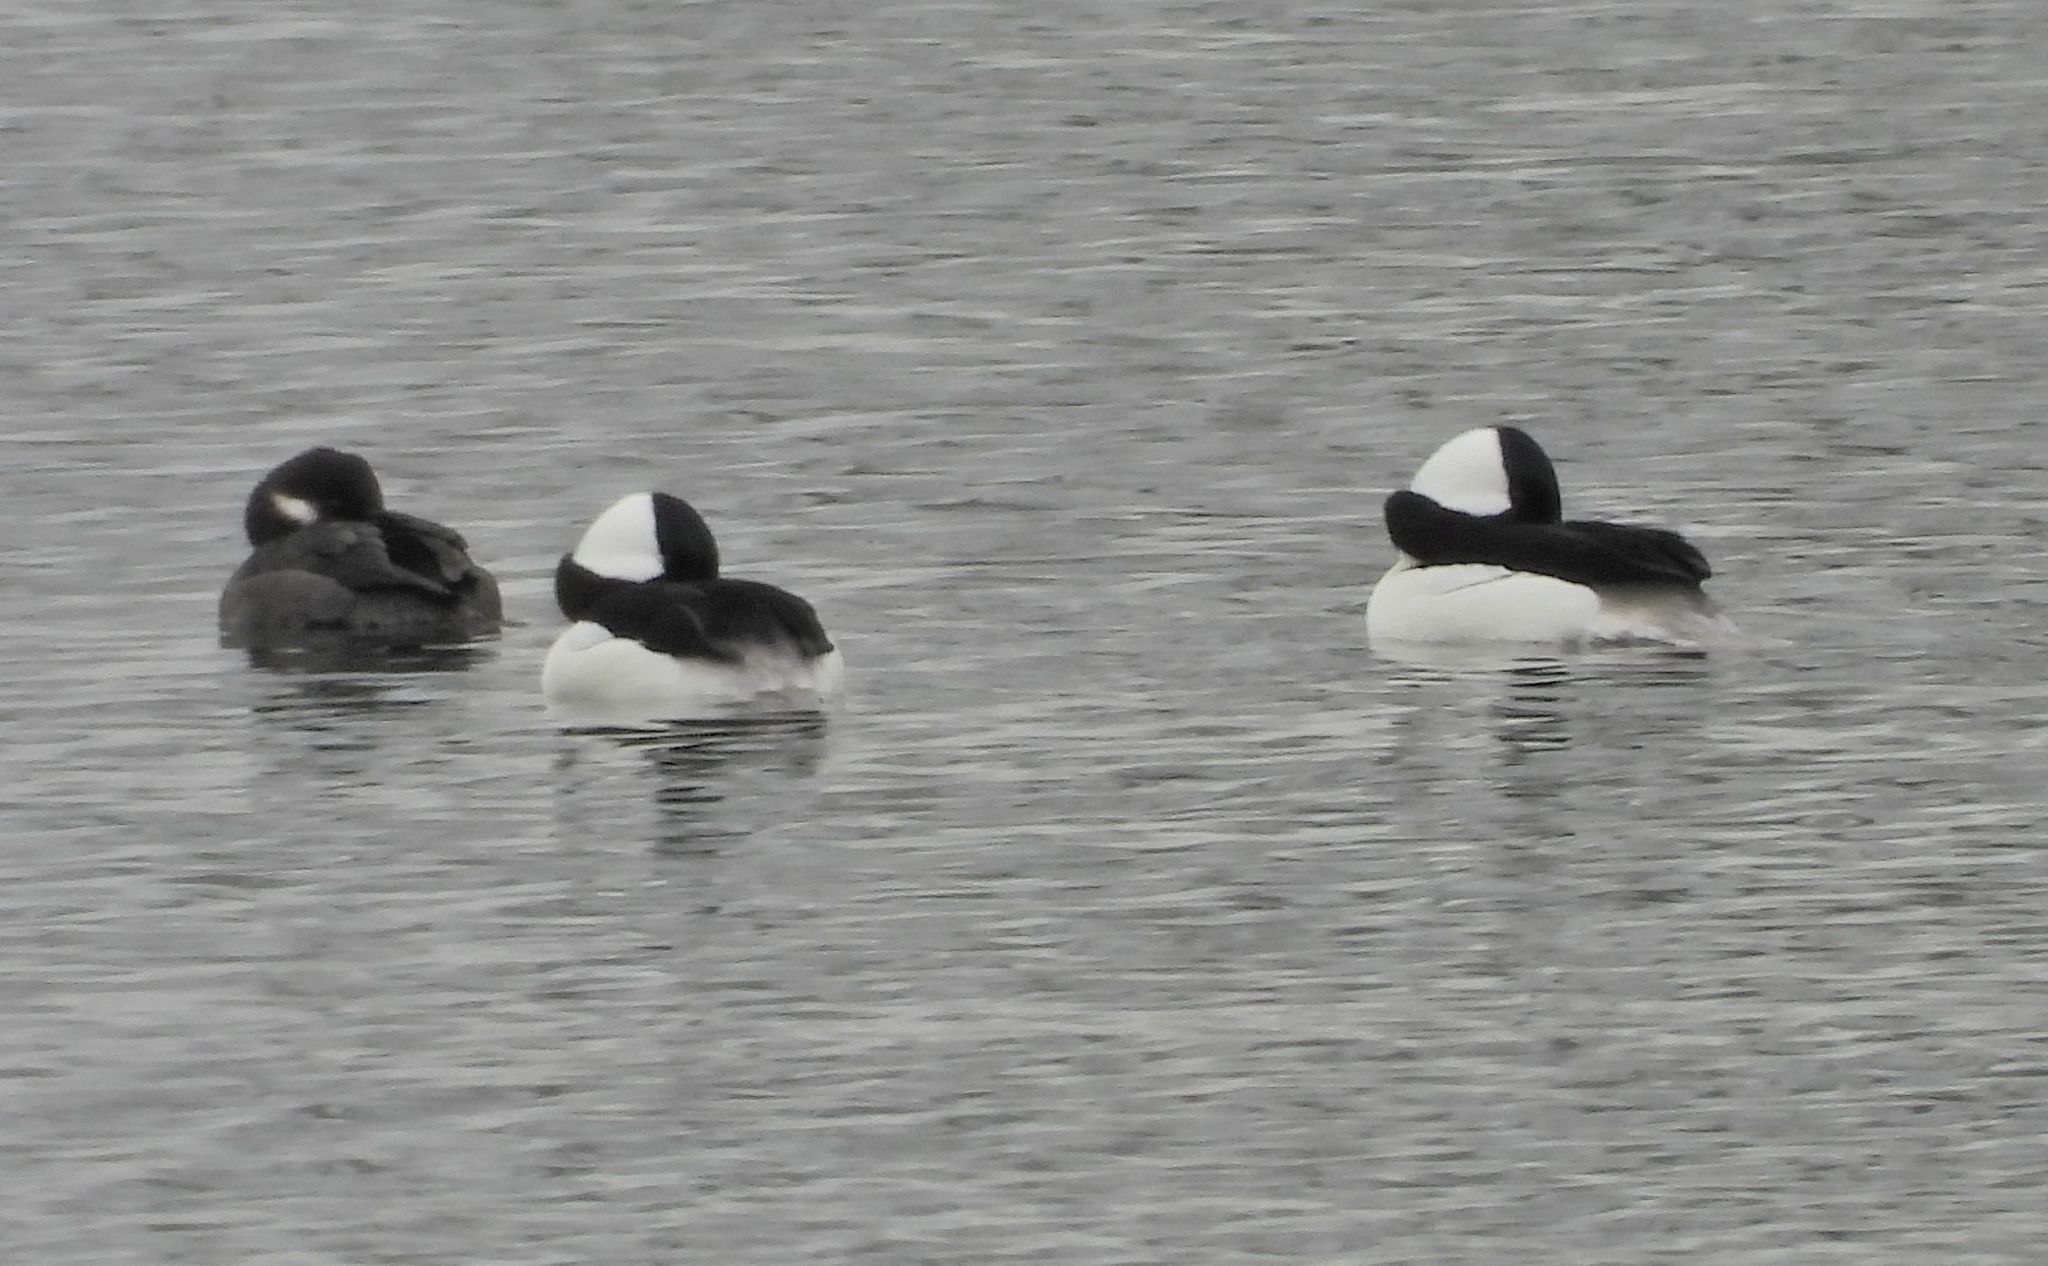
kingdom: Animalia
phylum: Chordata
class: Aves
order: Anseriformes
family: Anatidae
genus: Bucephala
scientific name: Bucephala albeola
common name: Bufflehead
